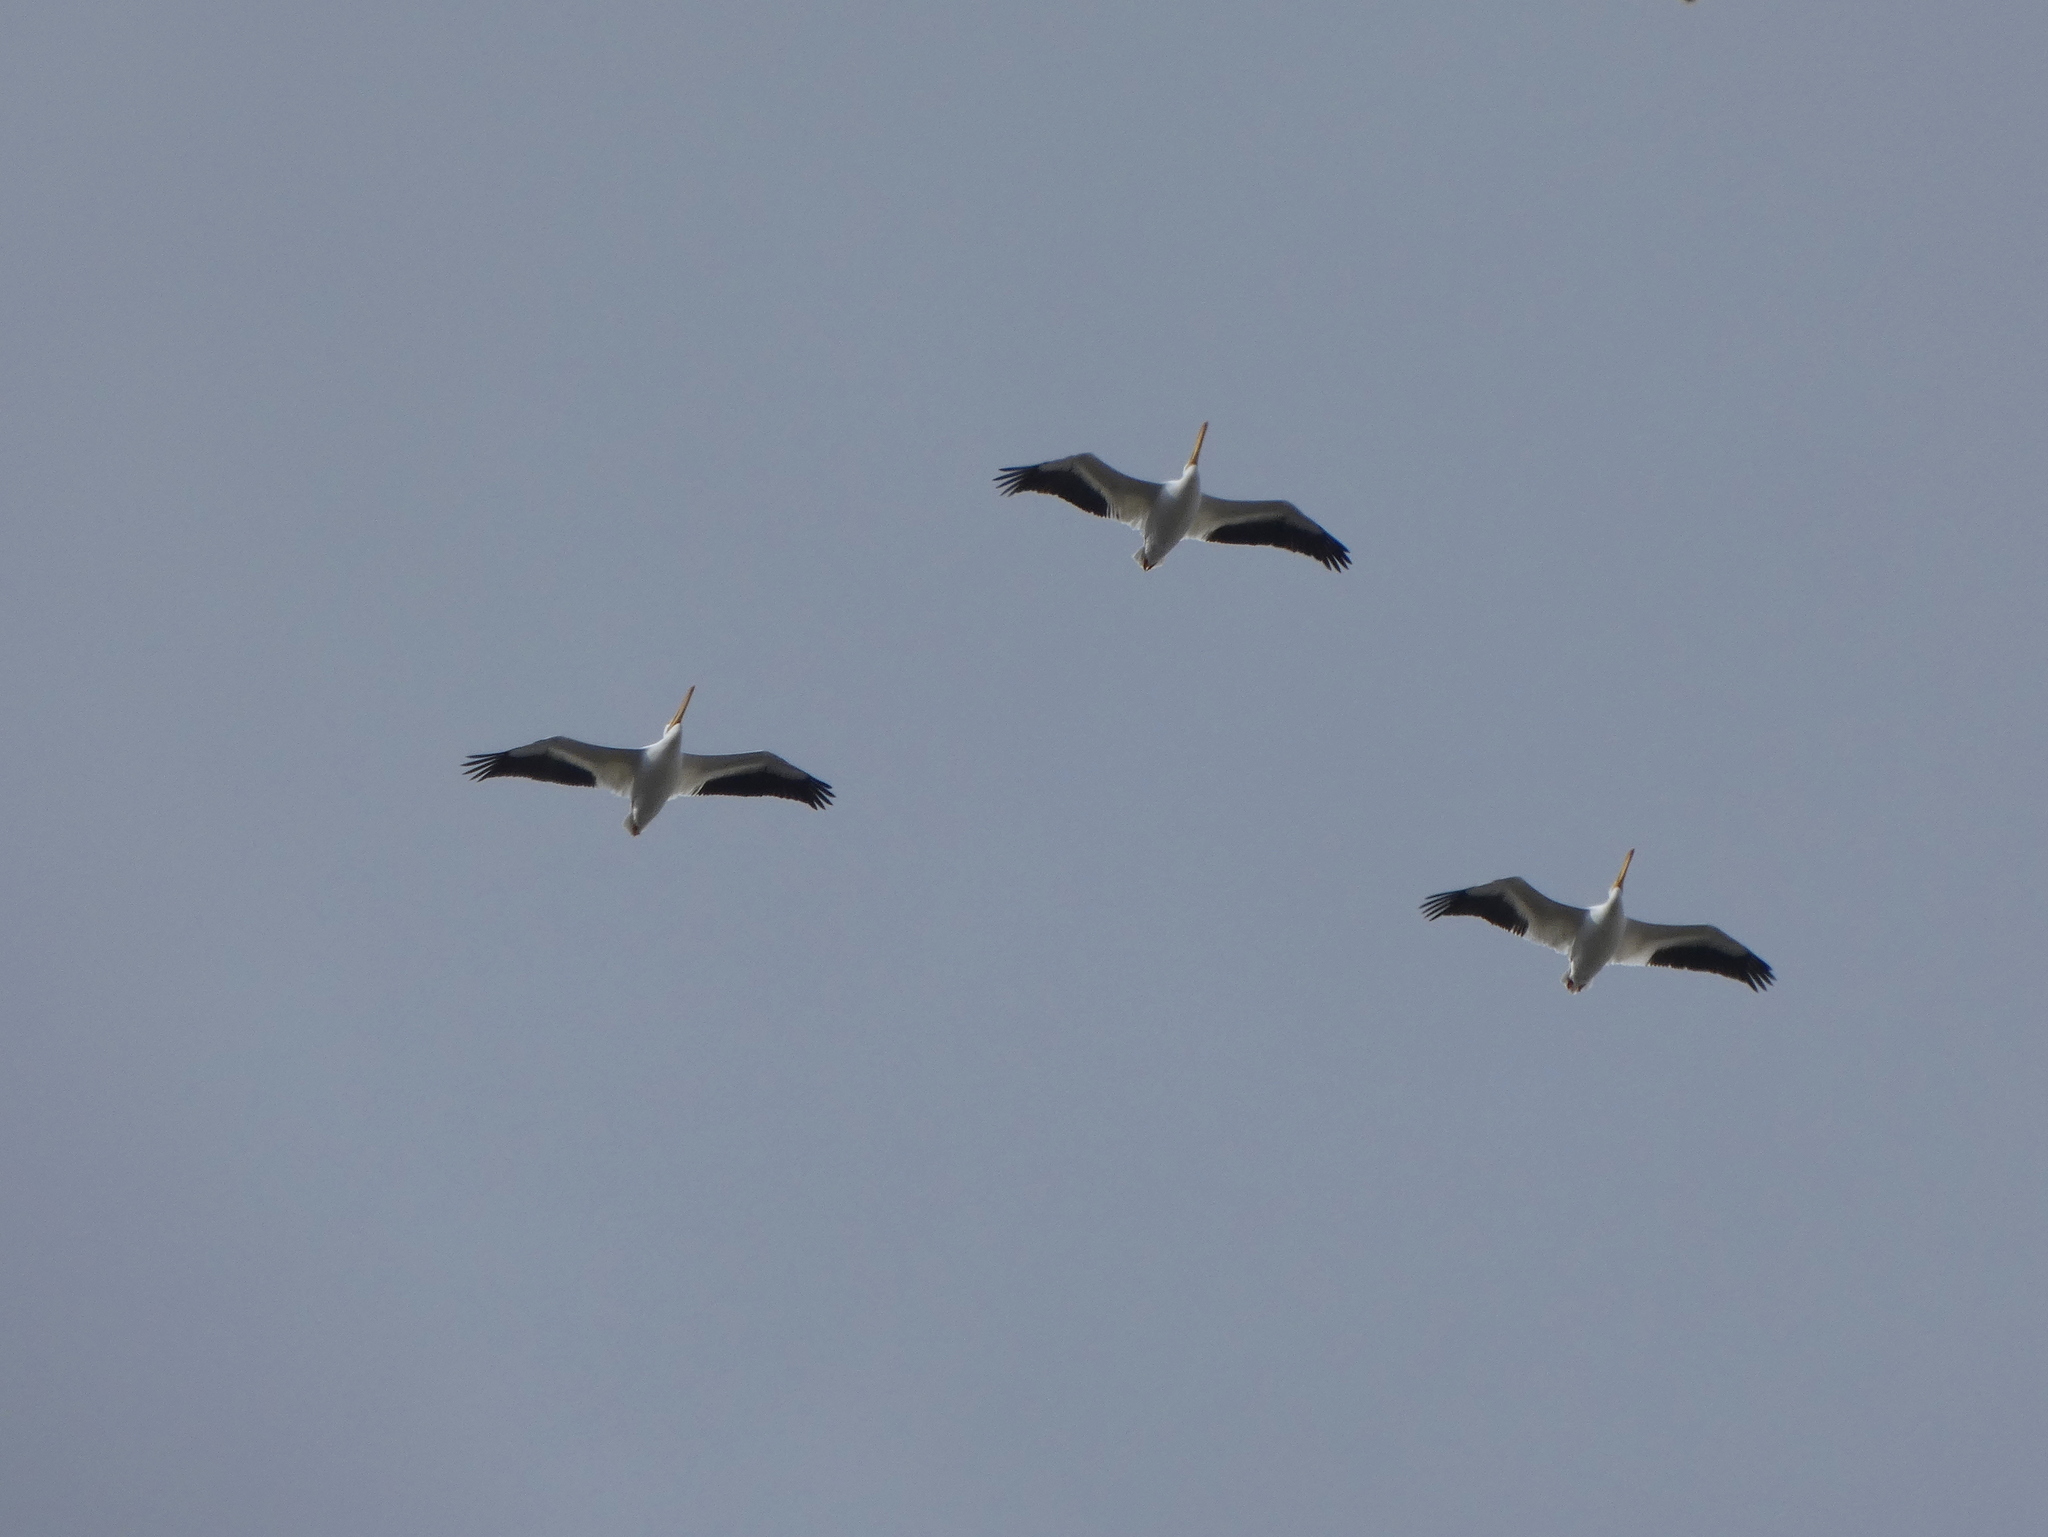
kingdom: Animalia
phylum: Chordata
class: Aves
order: Pelecaniformes
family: Pelecanidae
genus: Pelecanus
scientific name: Pelecanus erythrorhynchos
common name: American white pelican
